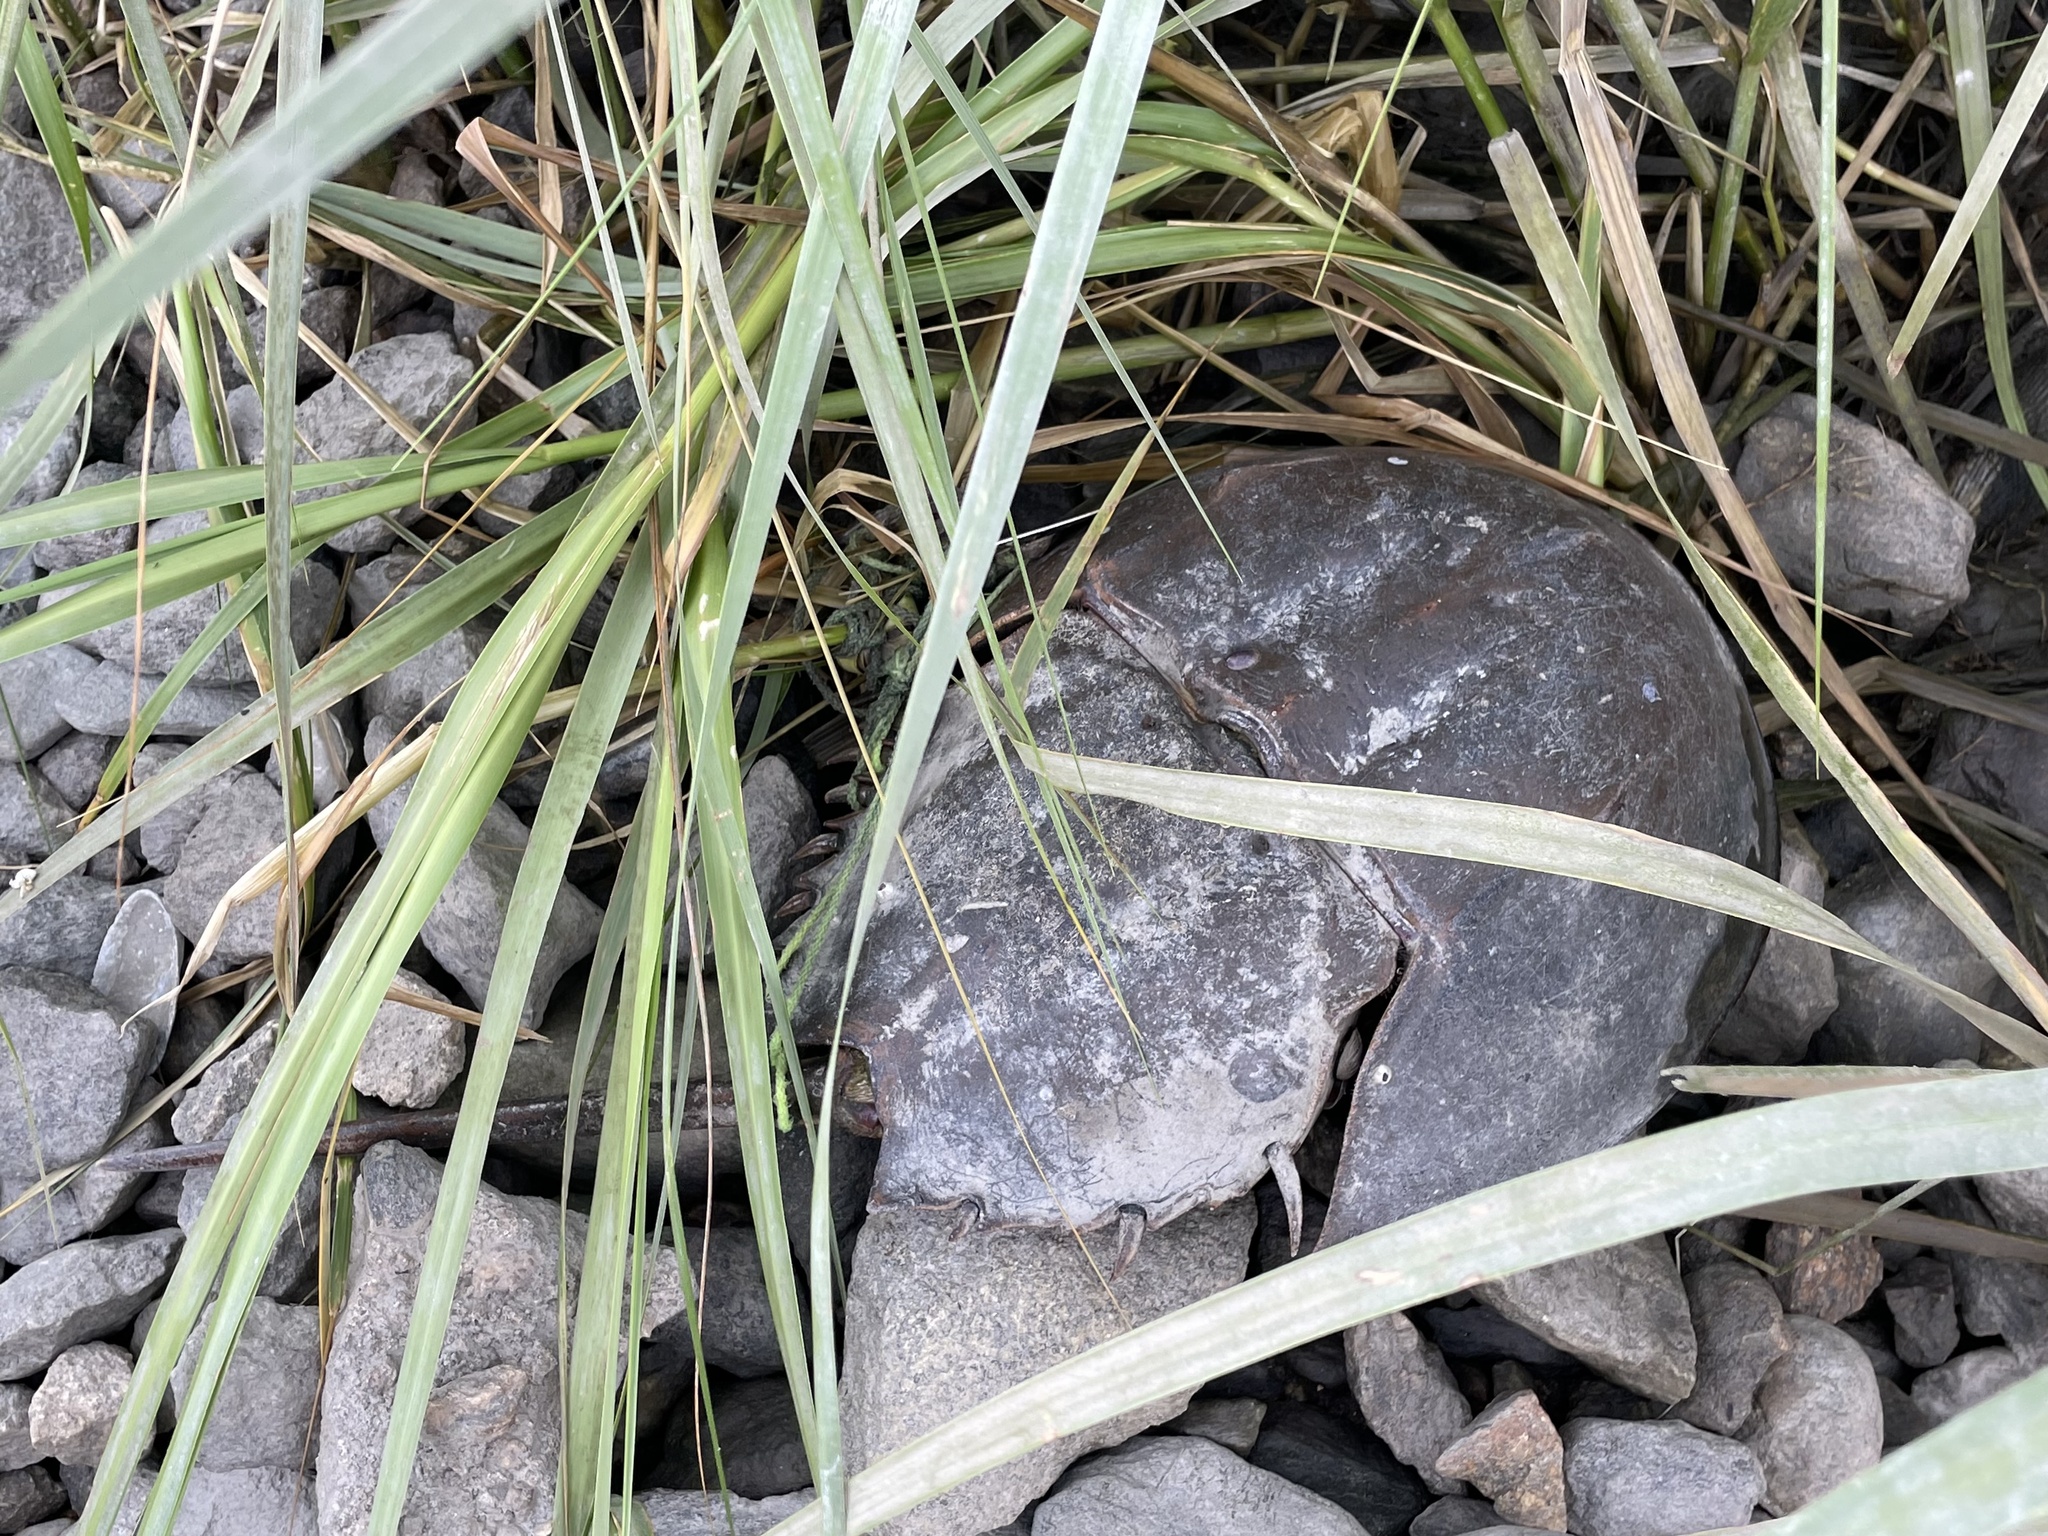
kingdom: Animalia
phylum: Arthropoda
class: Merostomata
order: Xiphosurida
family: Limulidae
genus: Limulus
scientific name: Limulus polyphemus
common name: Horseshoe crab
